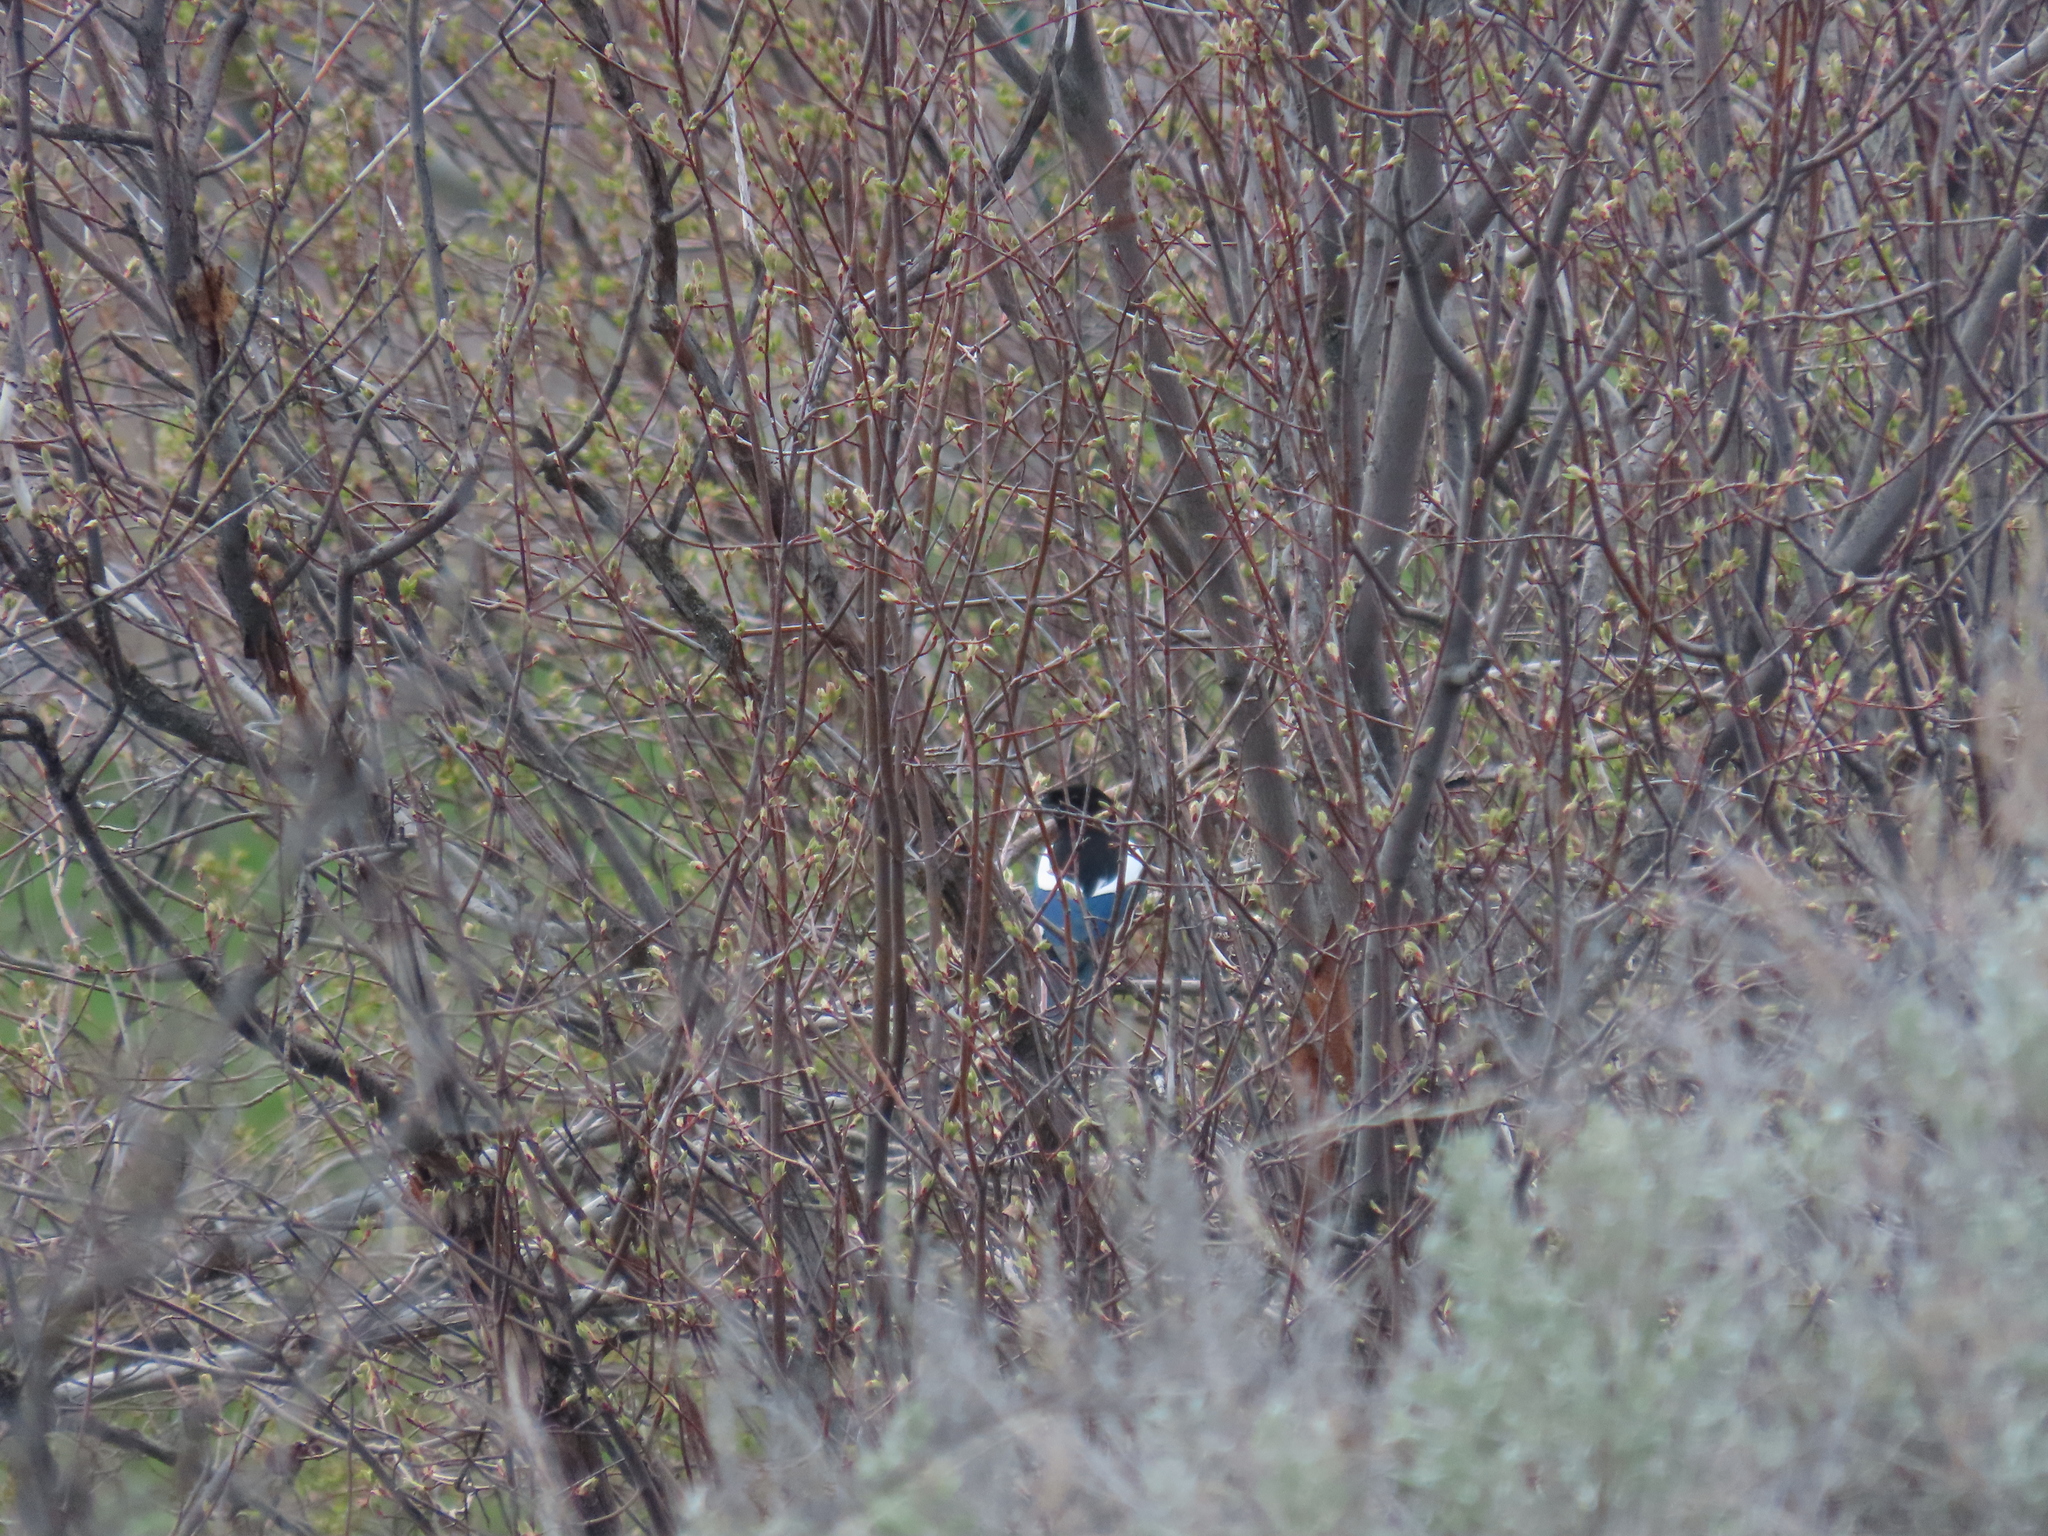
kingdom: Animalia
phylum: Chordata
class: Aves
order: Passeriformes
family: Corvidae
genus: Pica
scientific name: Pica hudsonia
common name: Black-billed magpie
